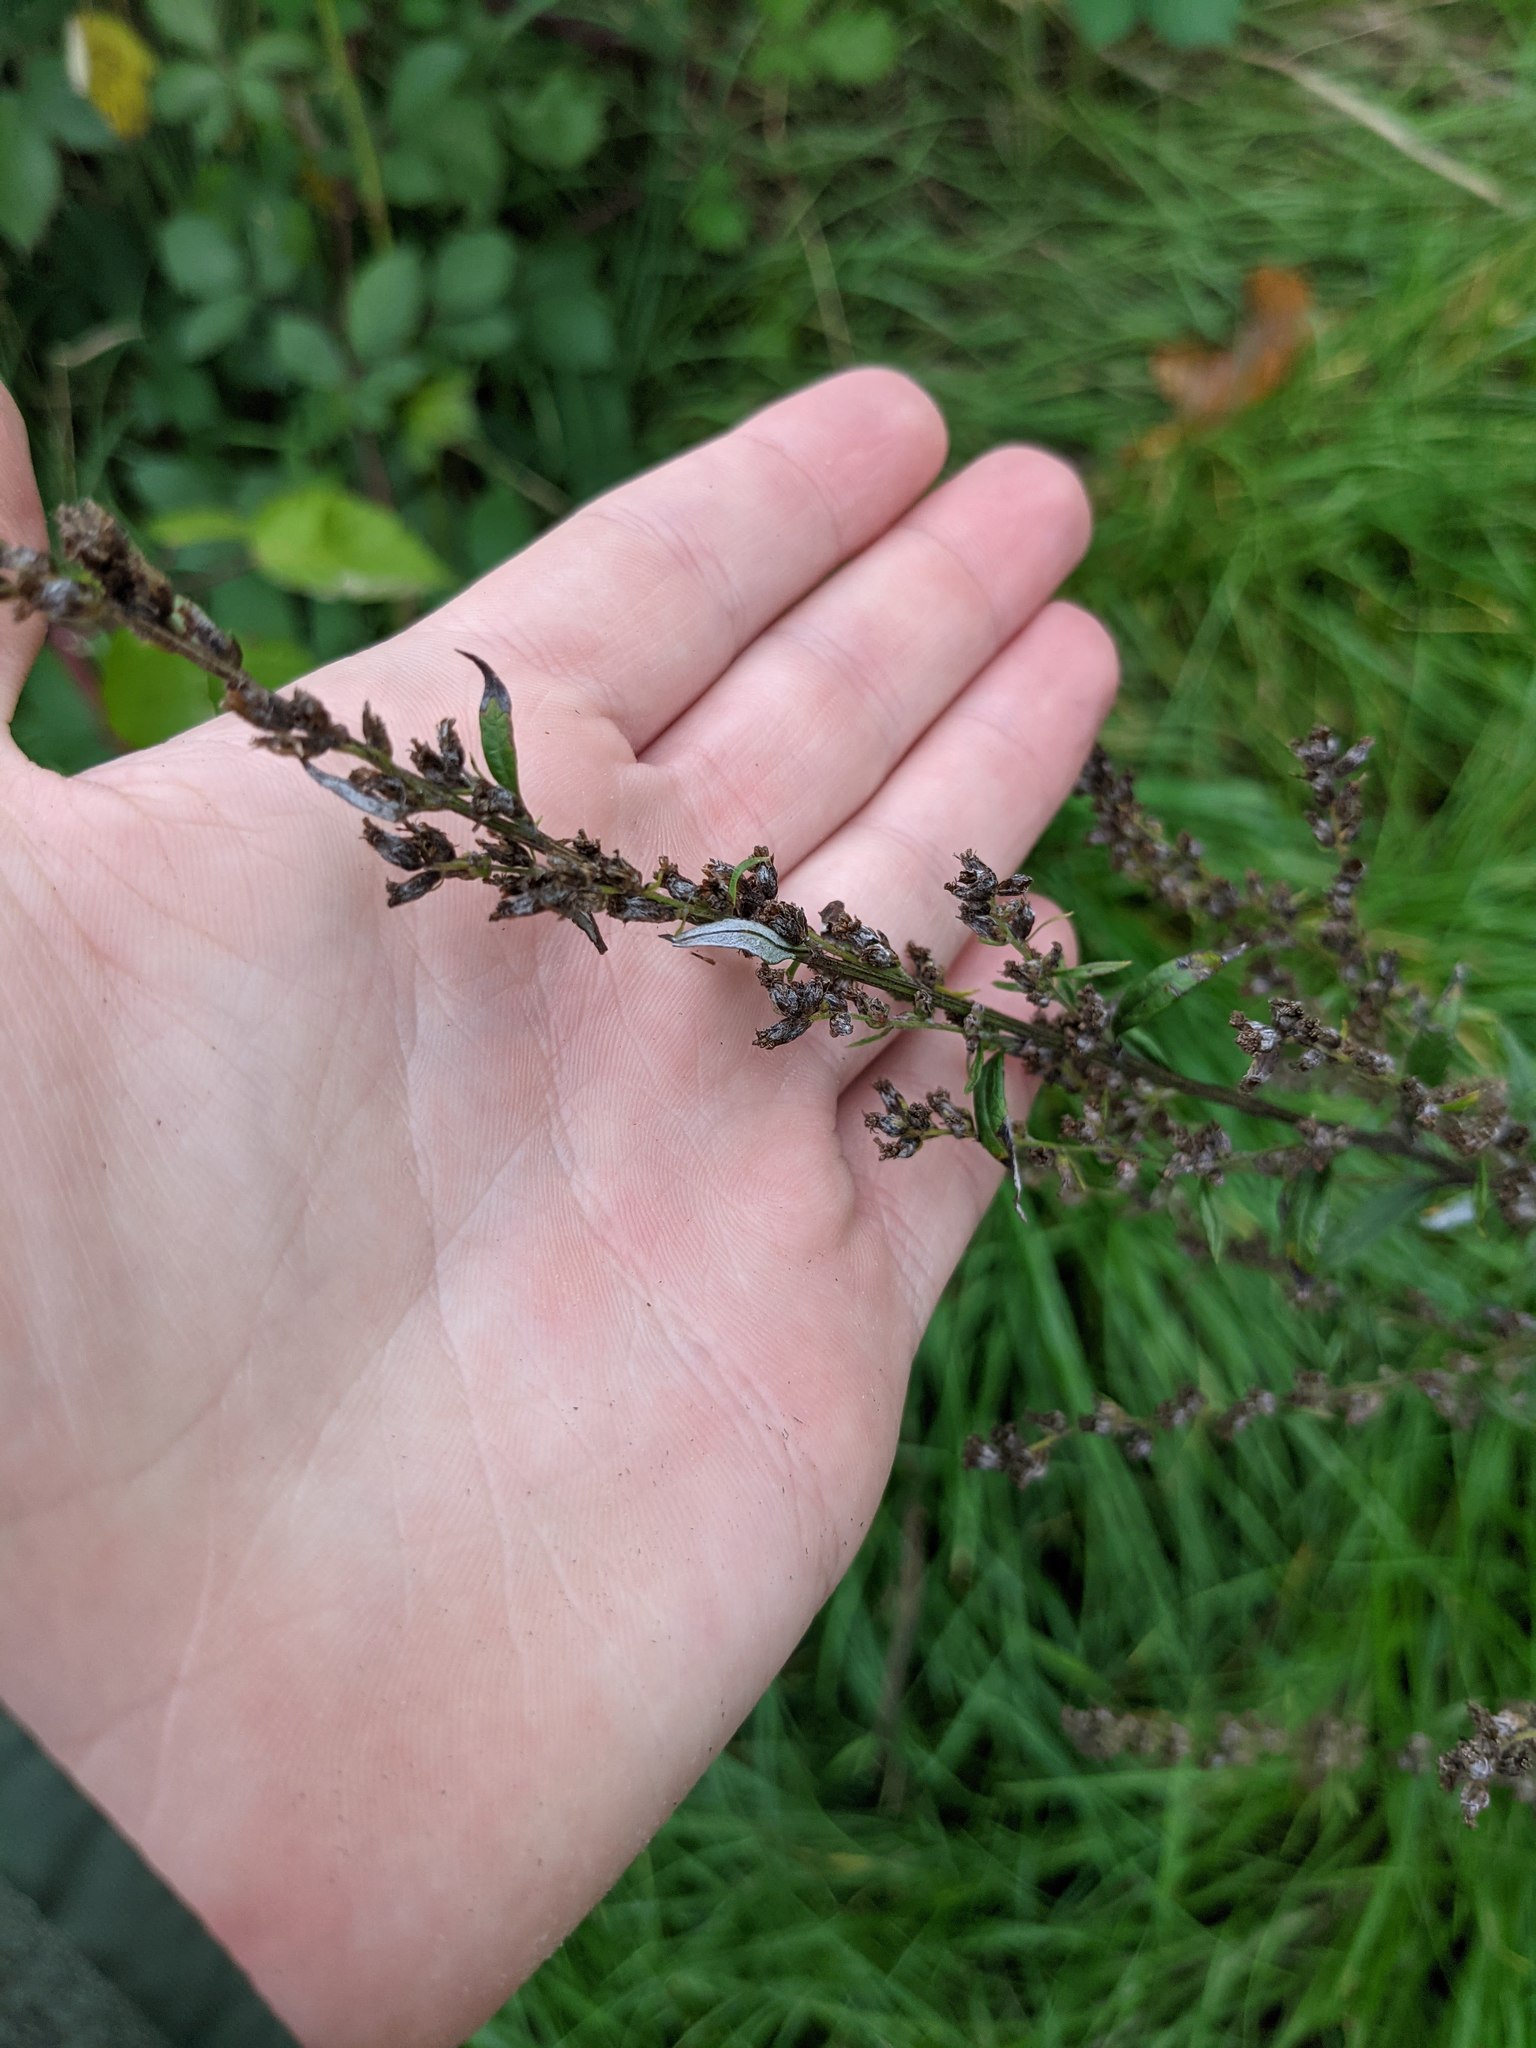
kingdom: Plantae
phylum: Tracheophyta
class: Magnoliopsida
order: Asterales
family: Asteraceae
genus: Artemisia
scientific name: Artemisia vulgaris
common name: Mugwort
